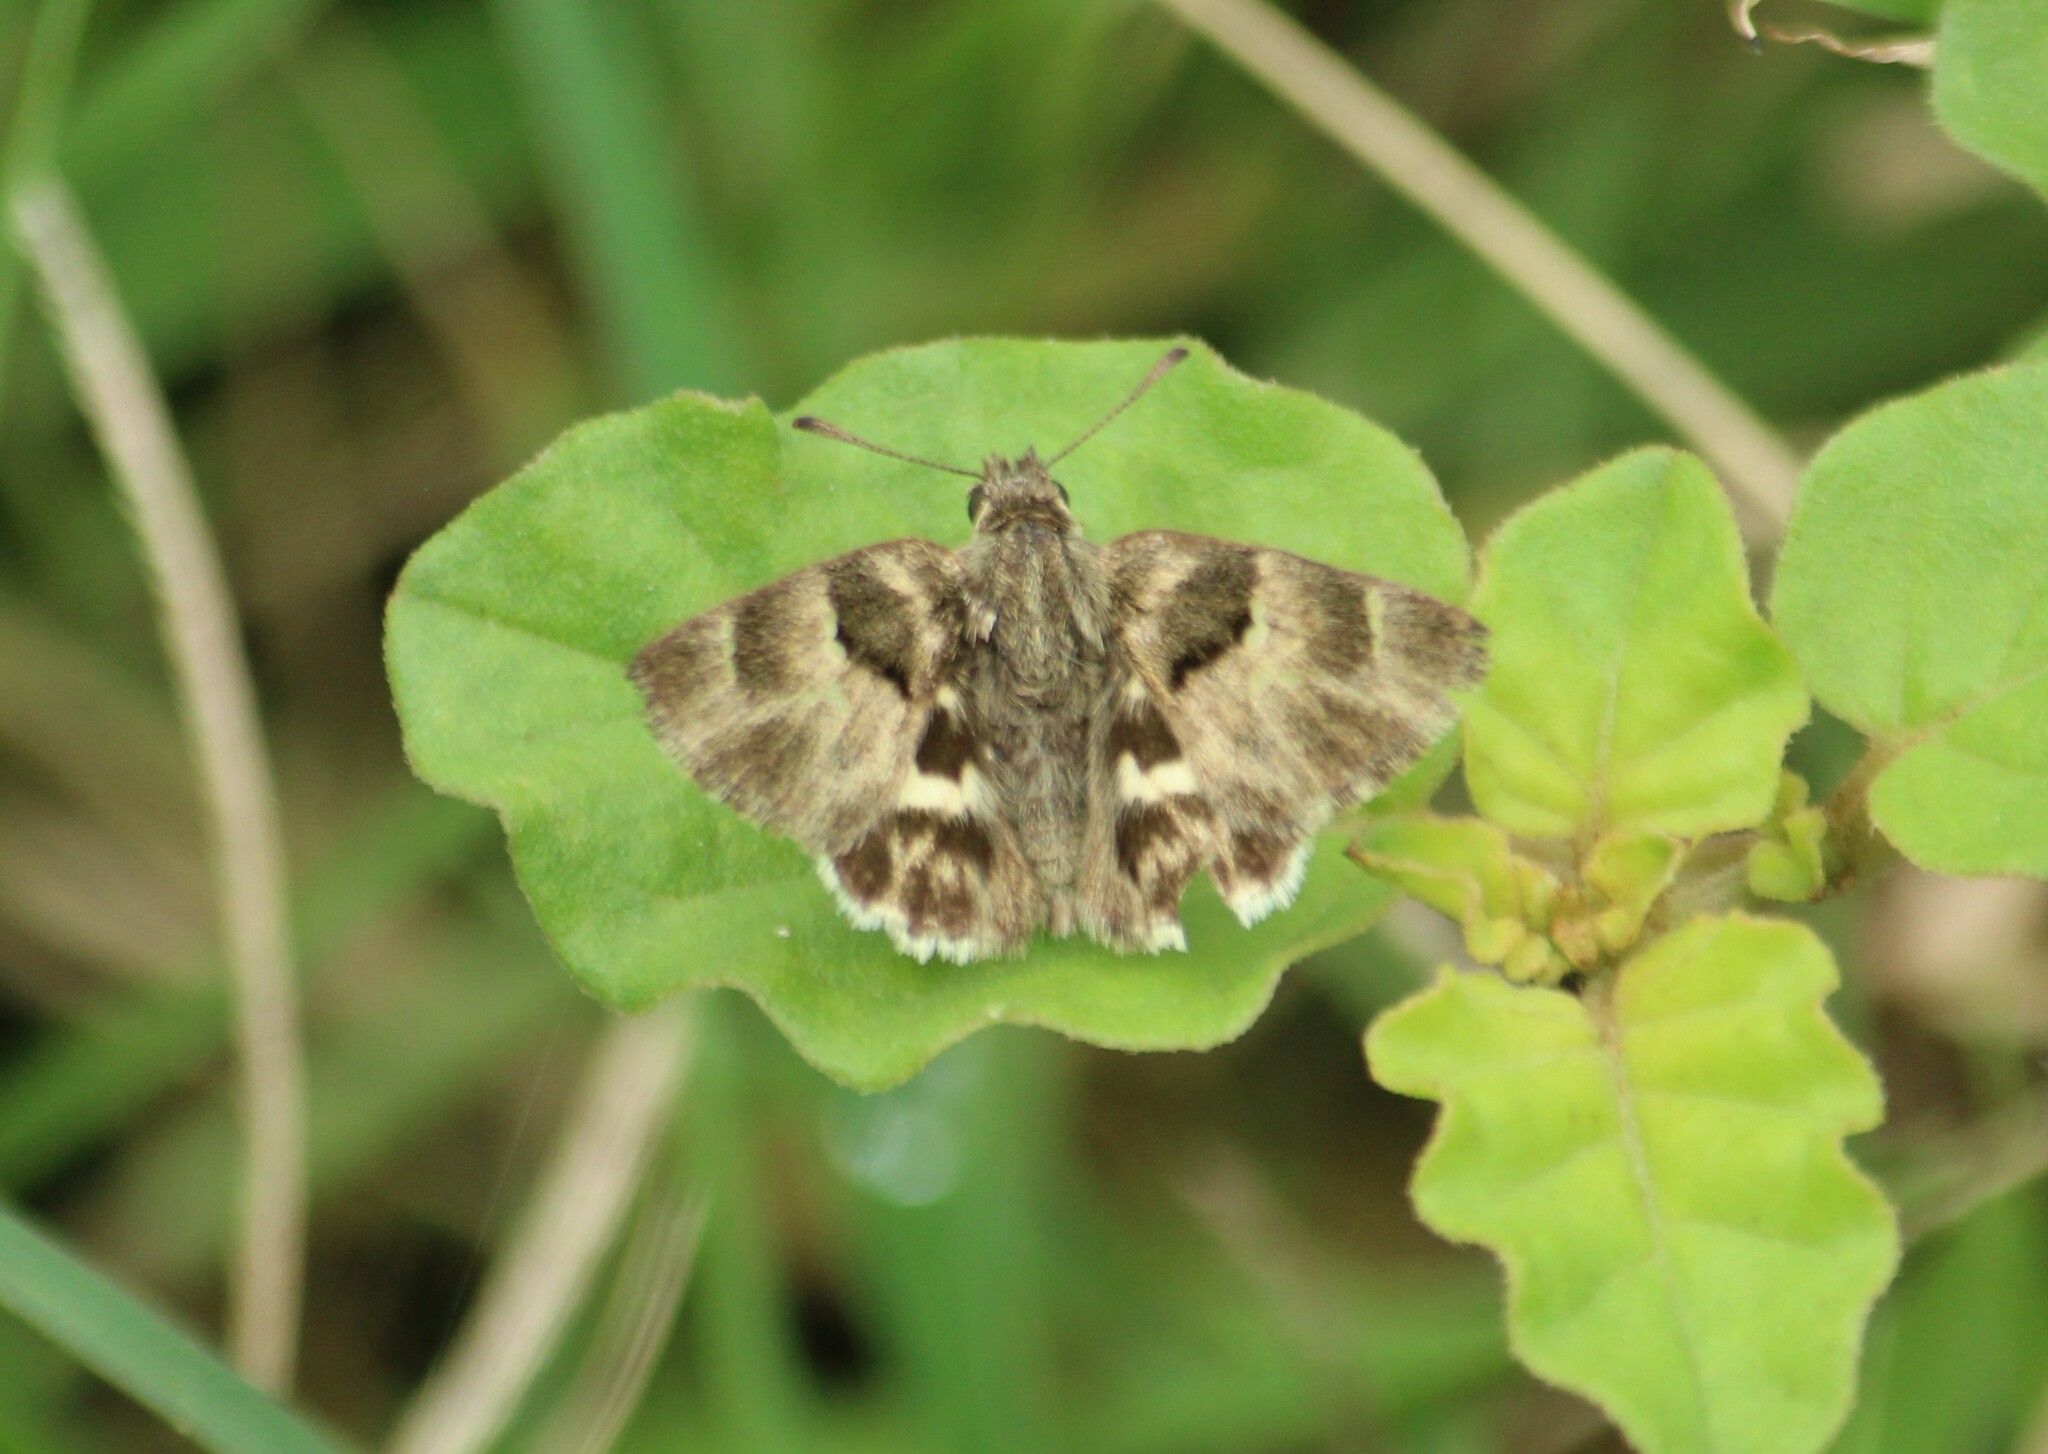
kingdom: Animalia
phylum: Arthropoda
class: Insecta
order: Lepidoptera
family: Hesperiidae
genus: Gomalia
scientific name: Gomalia elma
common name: Green-marbled skipper
